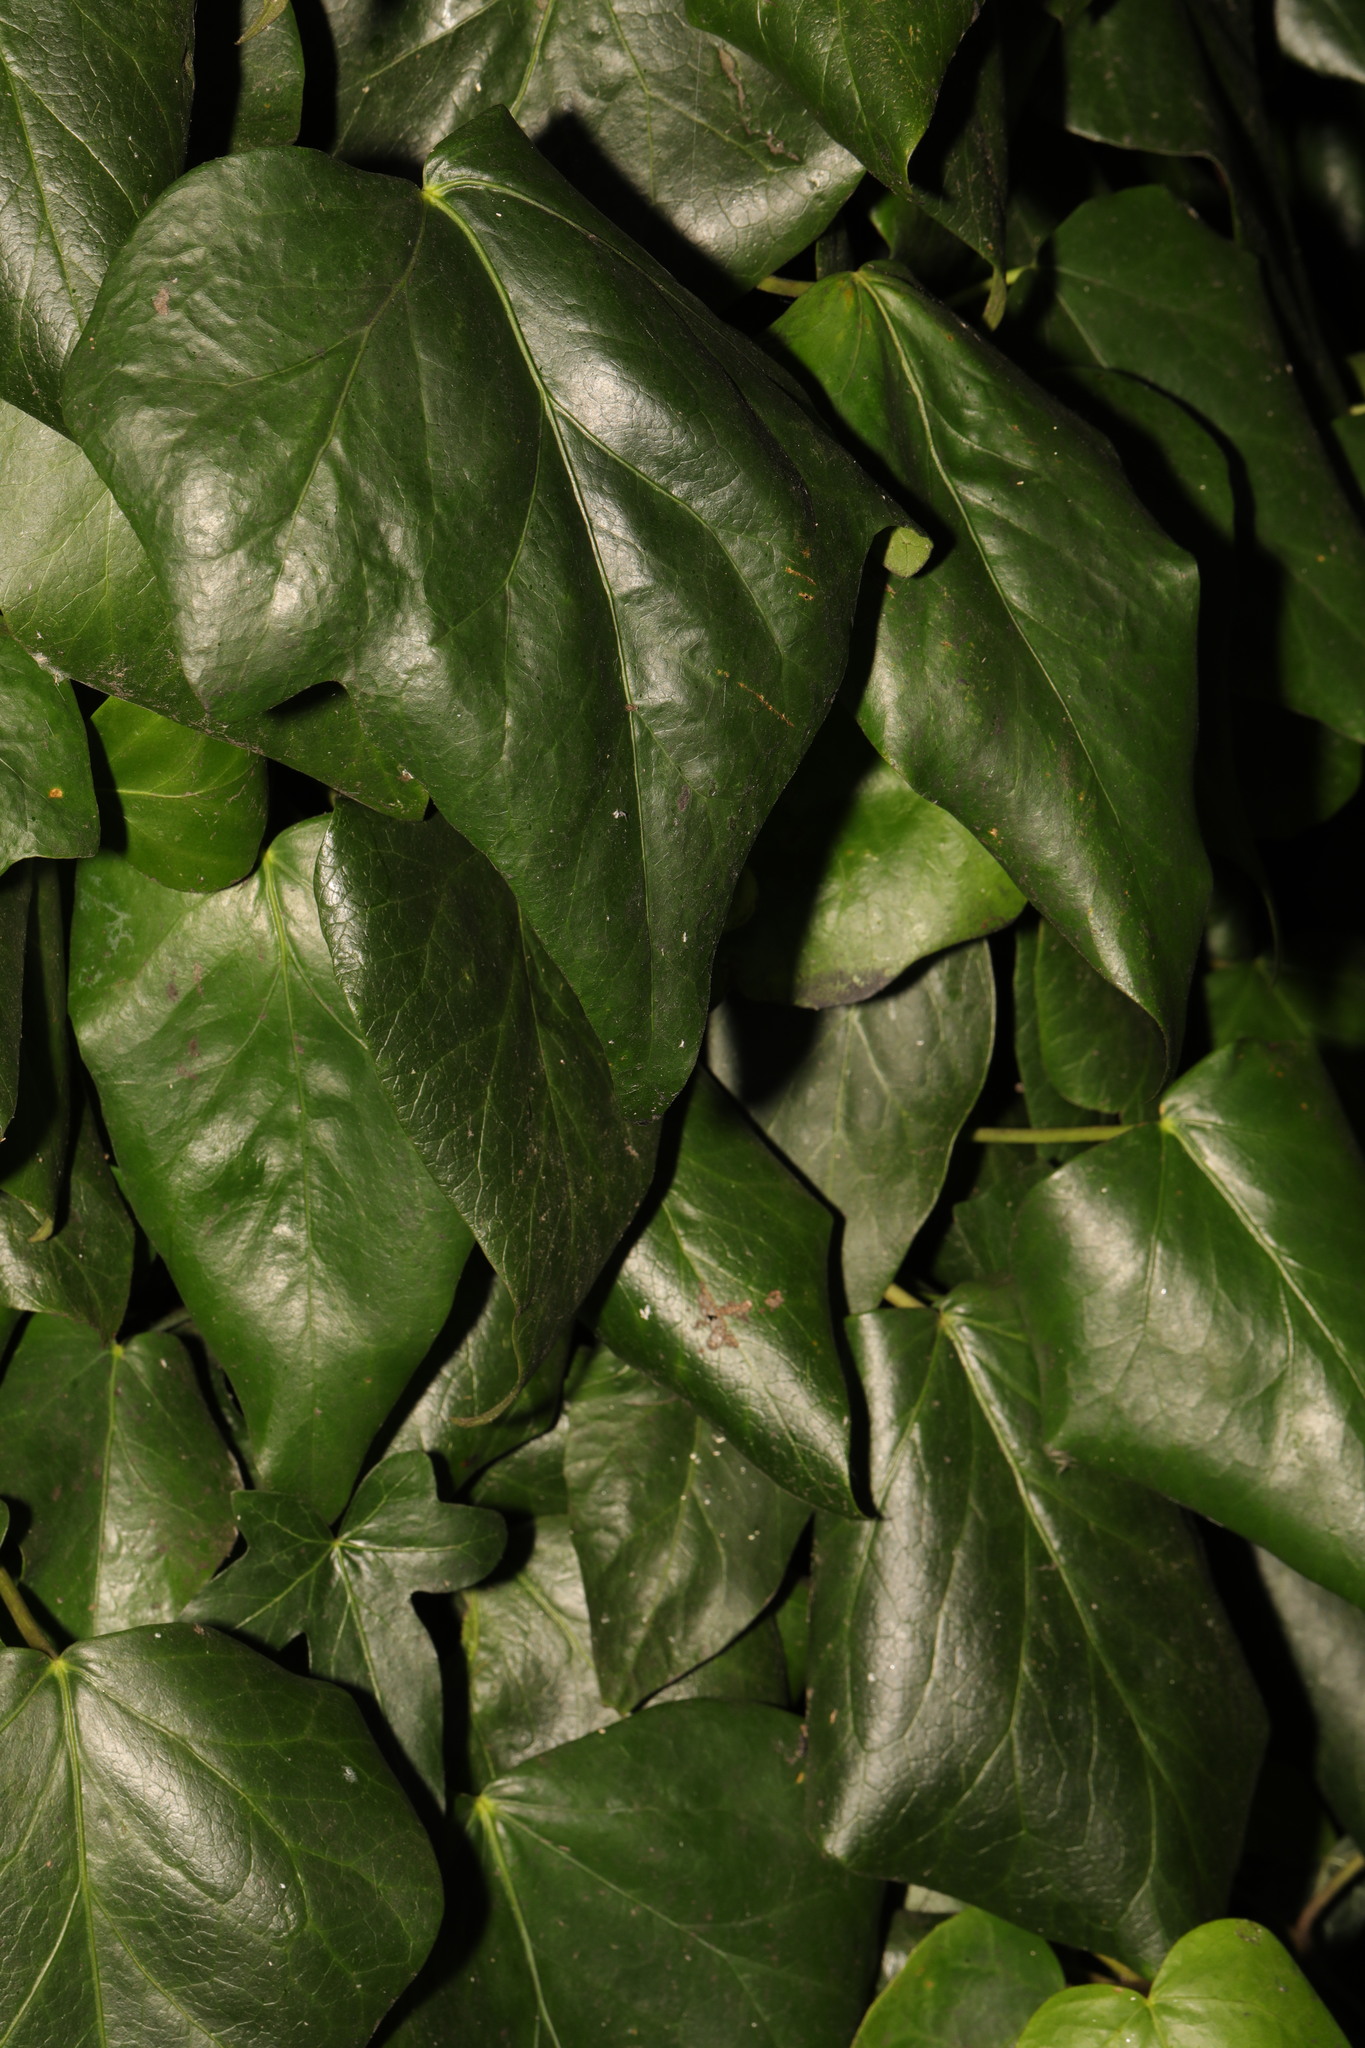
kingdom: Plantae
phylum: Tracheophyta
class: Magnoliopsida
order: Apiales
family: Araliaceae
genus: Hedera
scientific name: Hedera colchica
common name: Persian ivy
